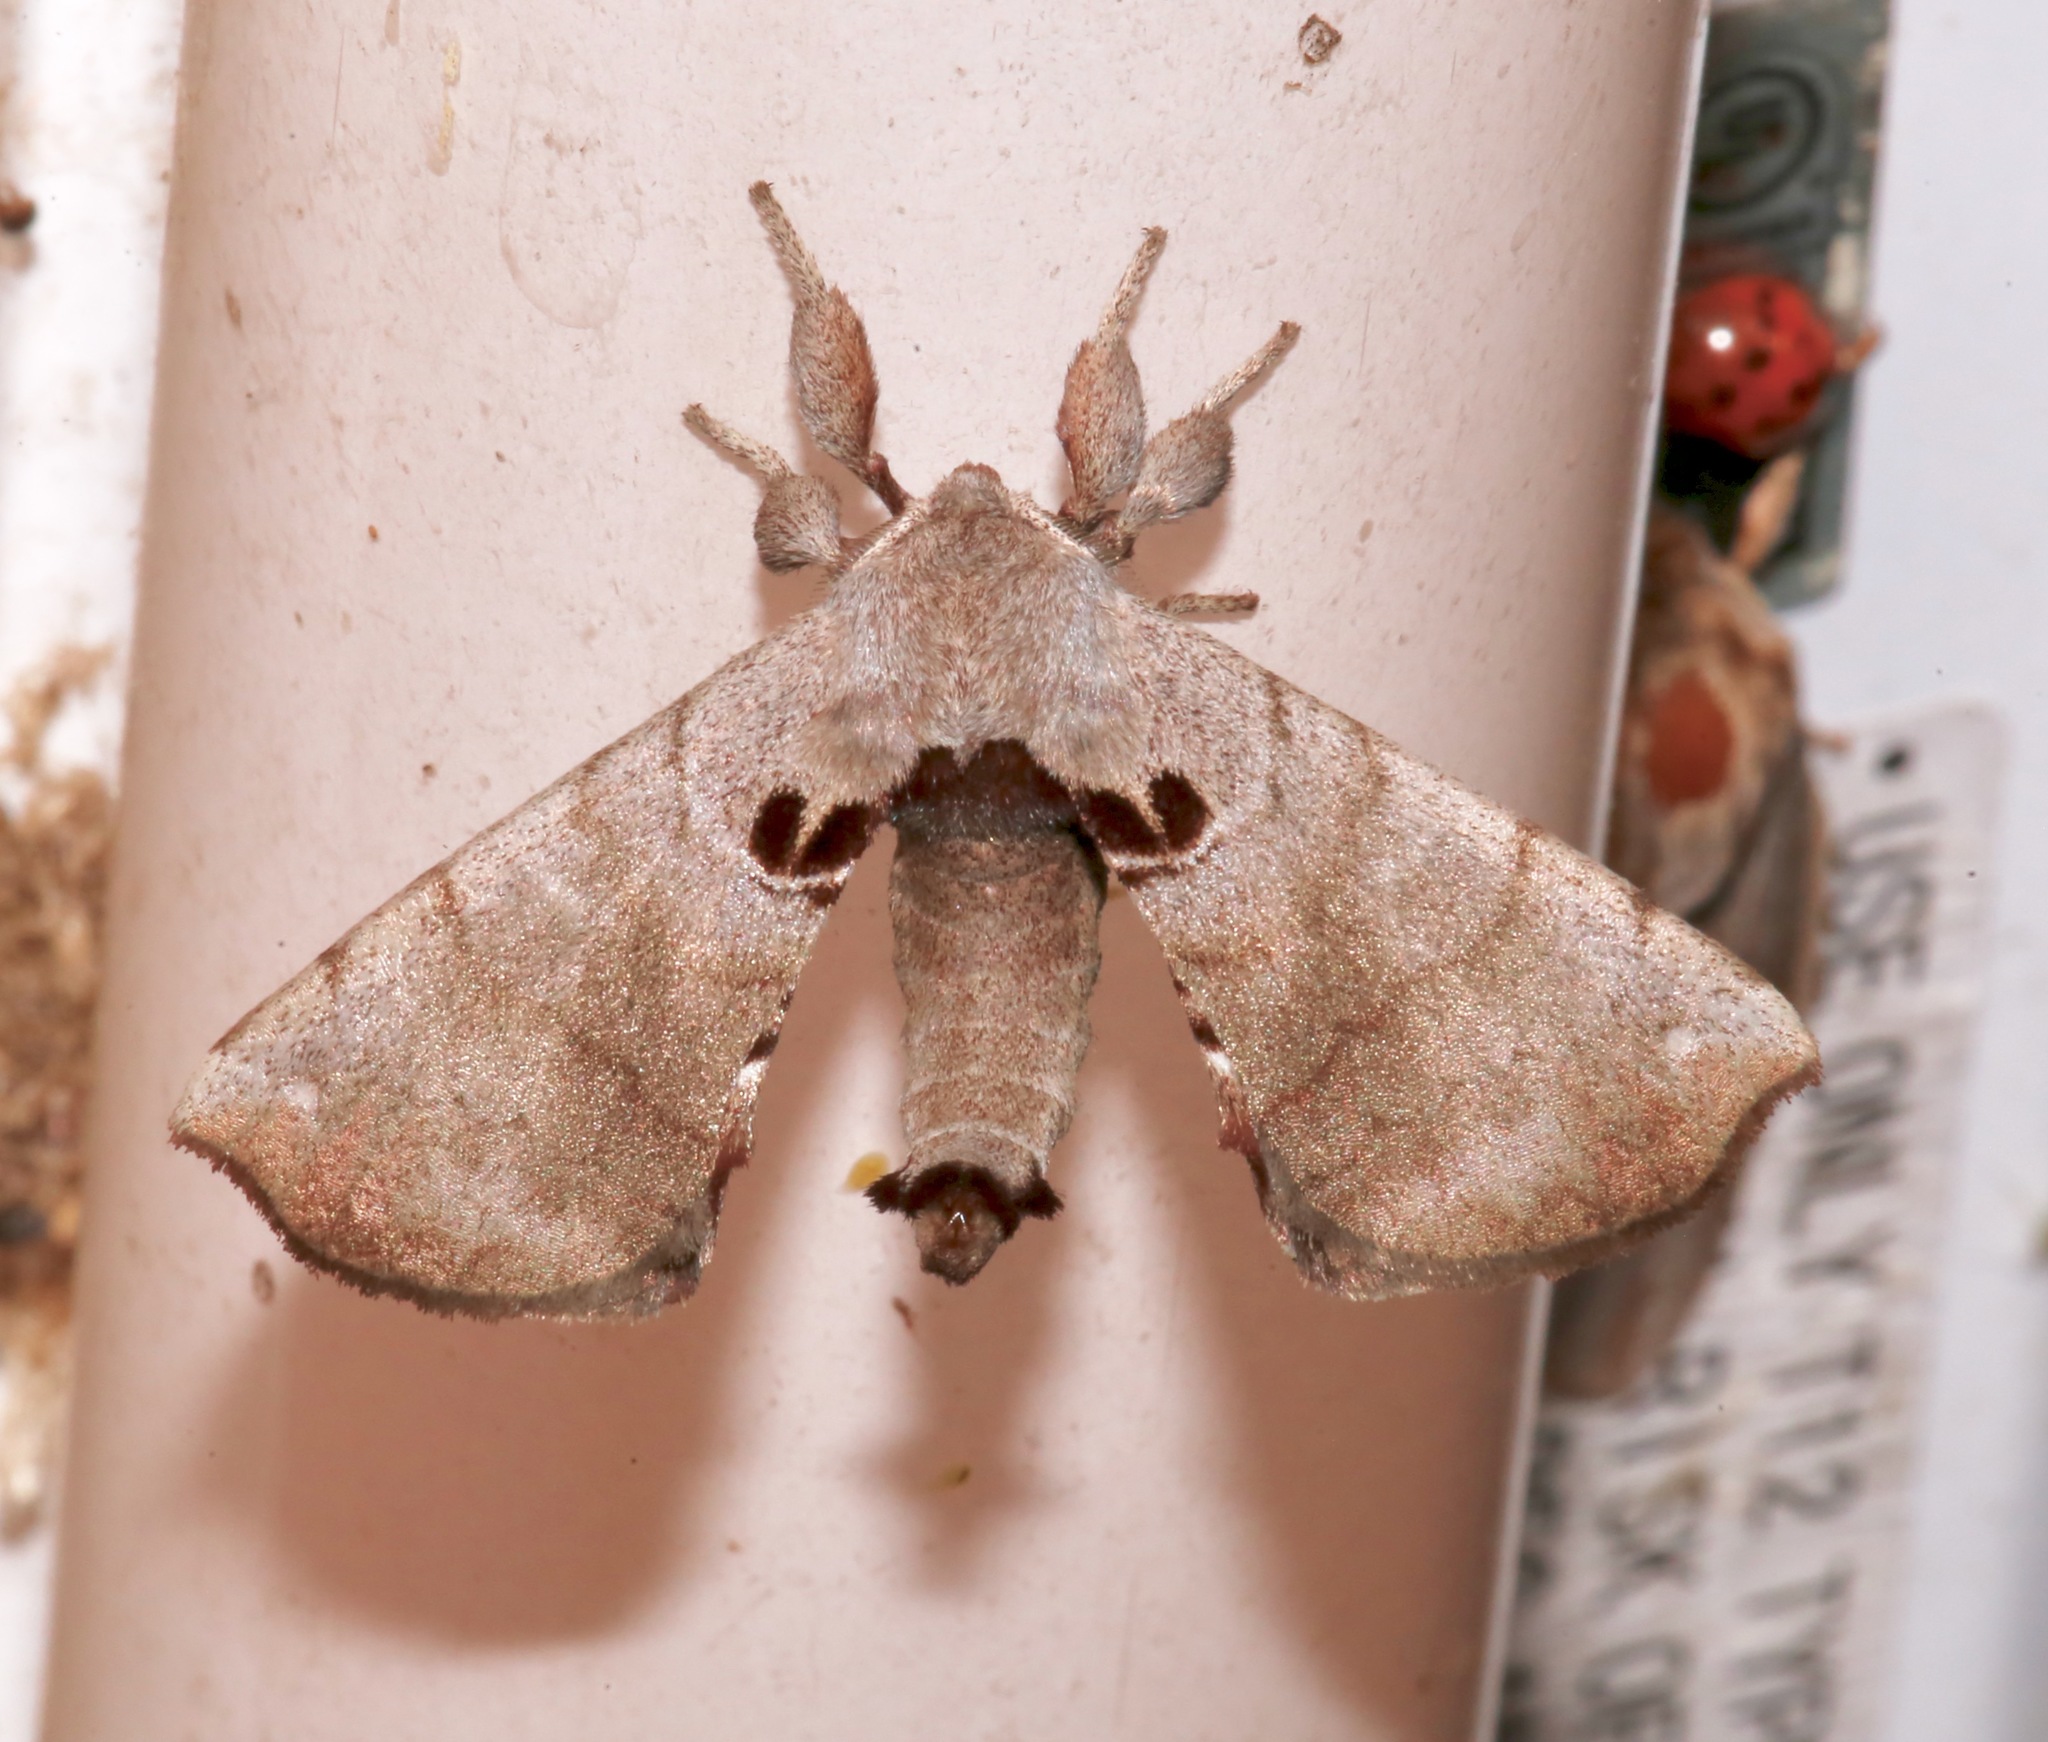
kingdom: Animalia
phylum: Arthropoda
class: Insecta
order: Lepidoptera
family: Apatelodidae
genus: Hygrochroa
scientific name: Hygrochroa Apatelodes torrefacta
